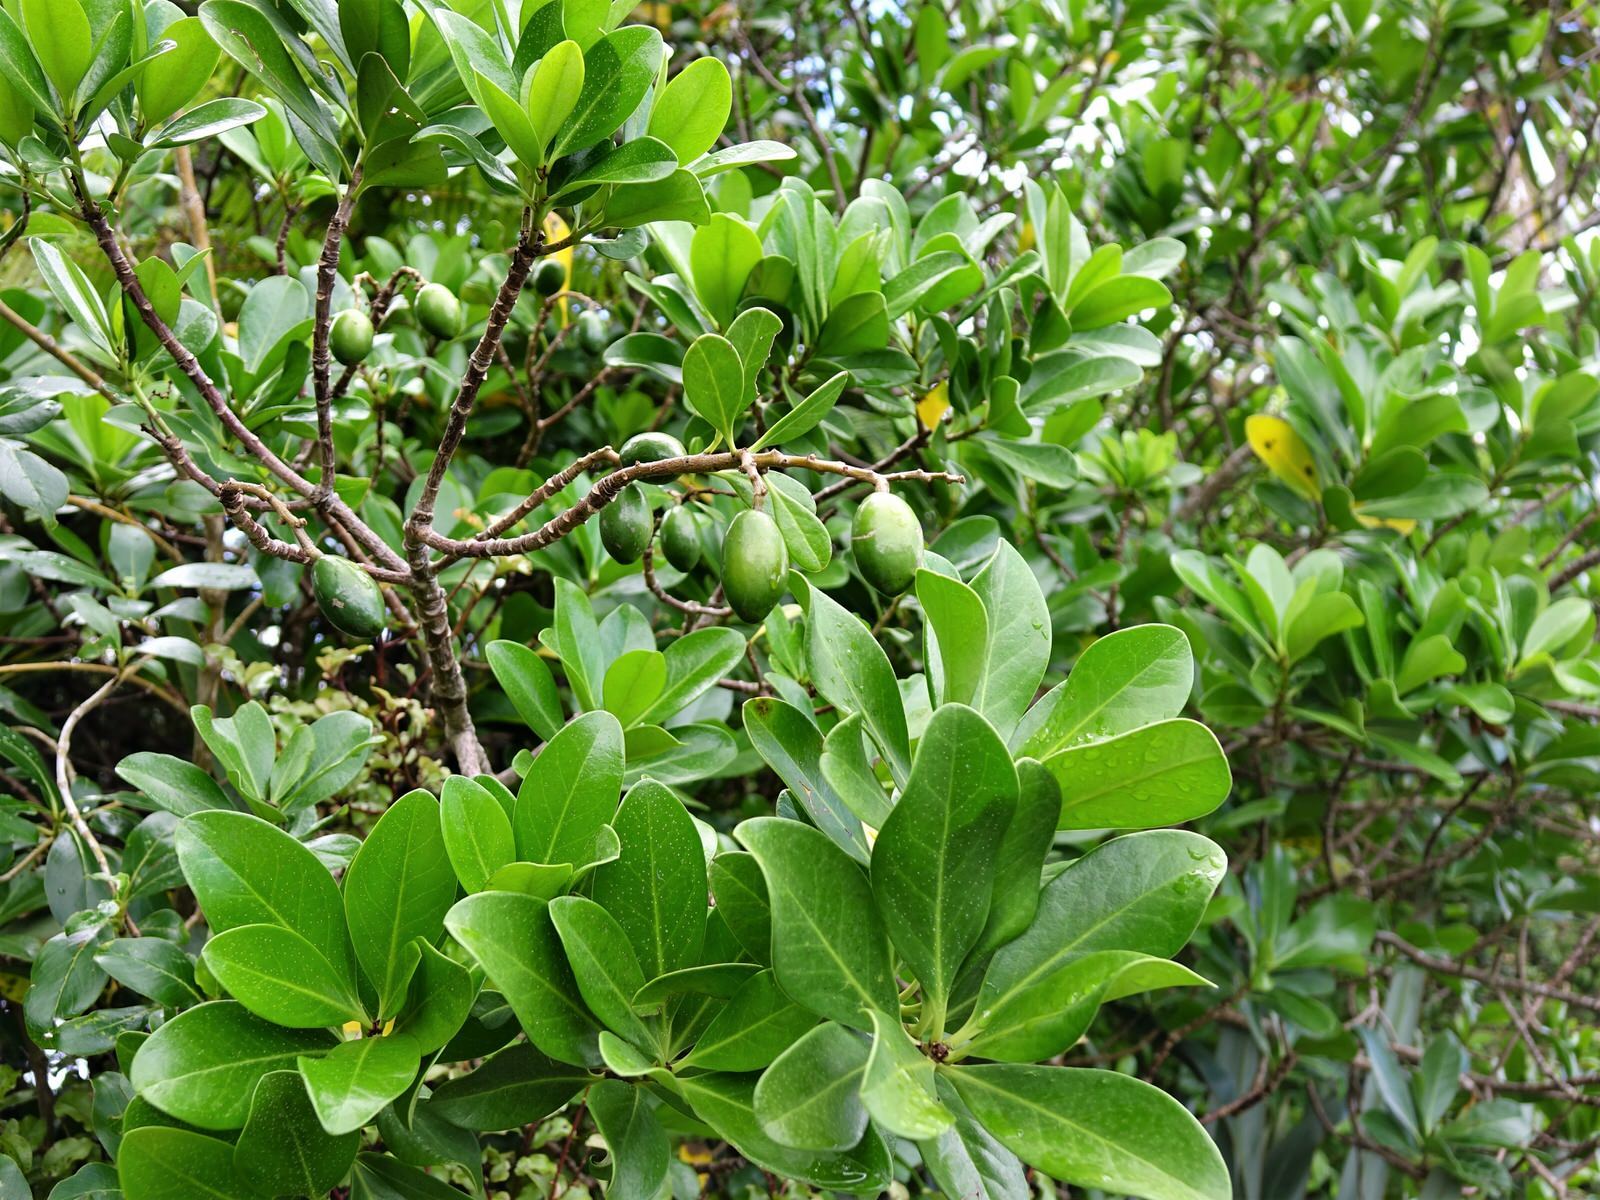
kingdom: Plantae
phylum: Tracheophyta
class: Magnoliopsida
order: Cucurbitales
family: Corynocarpaceae
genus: Corynocarpus
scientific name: Corynocarpus laevigatus
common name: New zealand laurel
